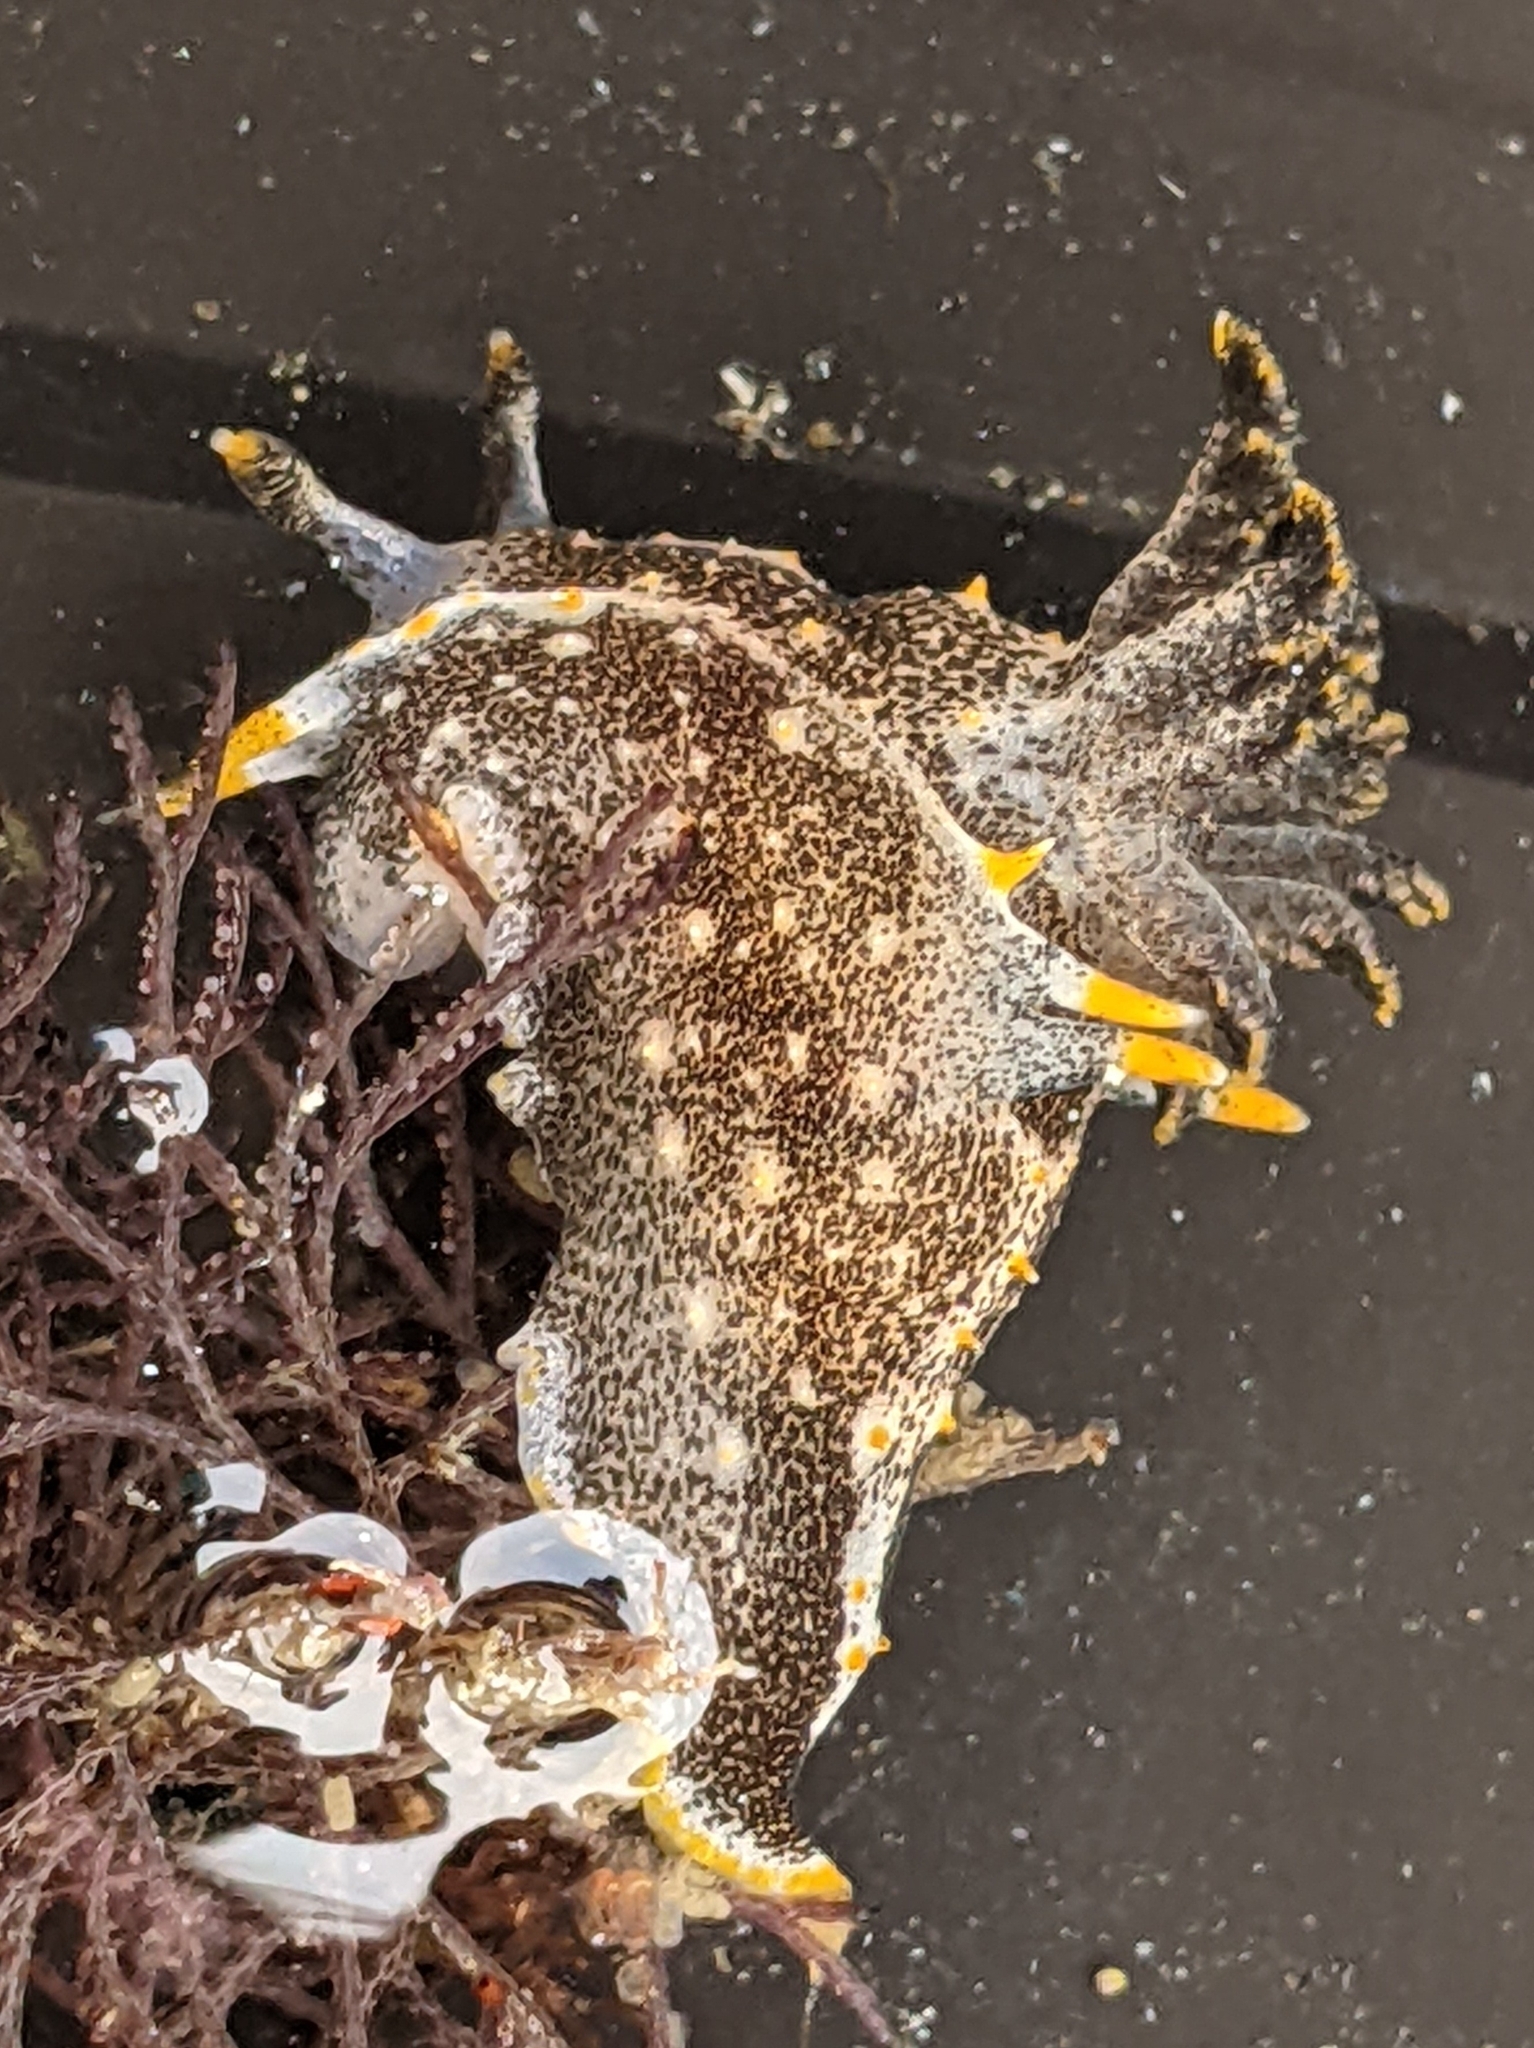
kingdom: Animalia
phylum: Mollusca
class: Gastropoda
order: Nudibranchia
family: Polyceridae
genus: Polycera
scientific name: Polycera hedgpethi
